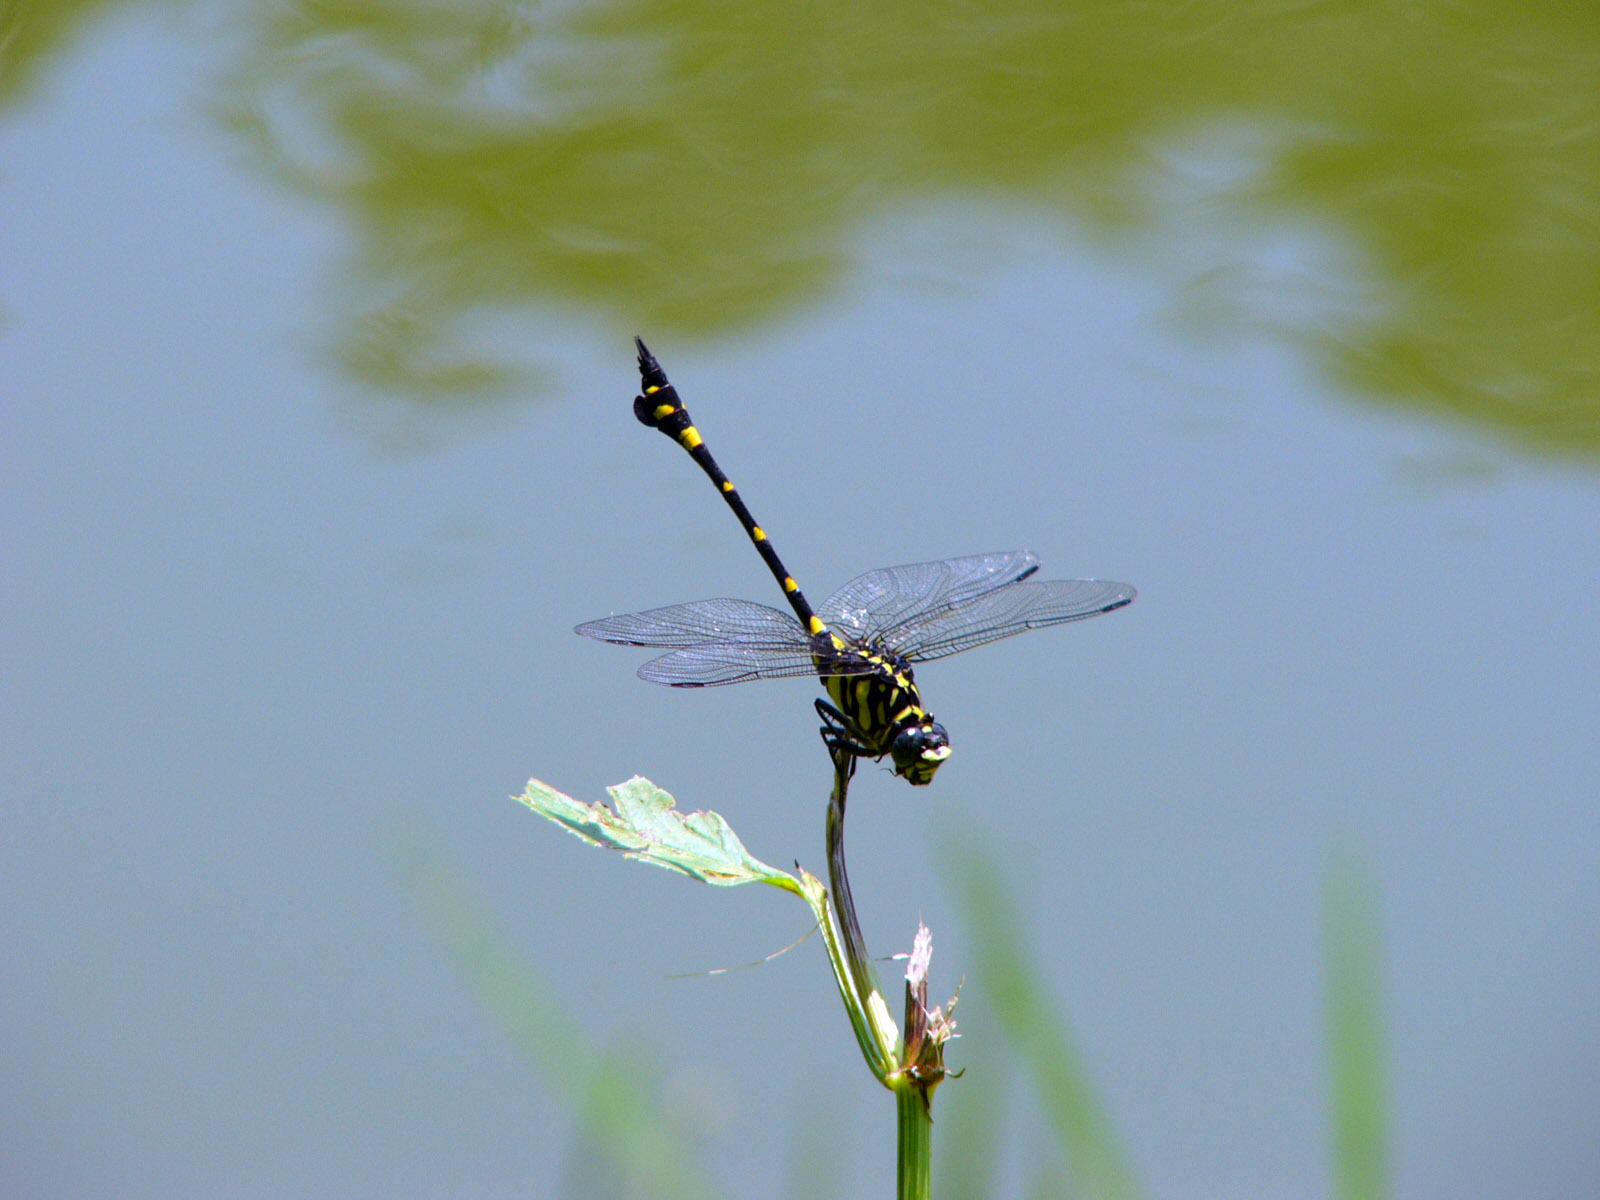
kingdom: Animalia
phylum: Arthropoda
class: Insecta
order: Odonata
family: Gomphidae
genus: Ictinogomphus
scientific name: Ictinogomphus rapax
